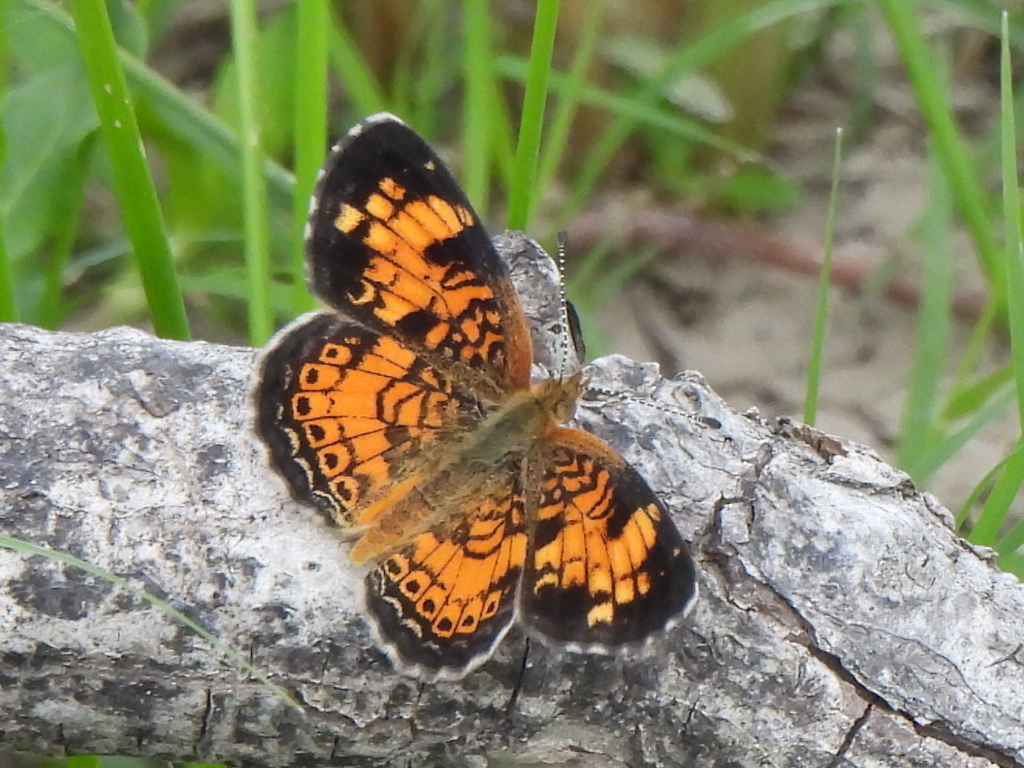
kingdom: Animalia
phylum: Arthropoda
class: Insecta
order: Lepidoptera
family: Nymphalidae
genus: Phyciodes
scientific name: Phyciodes tharos
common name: Pearl crescent
